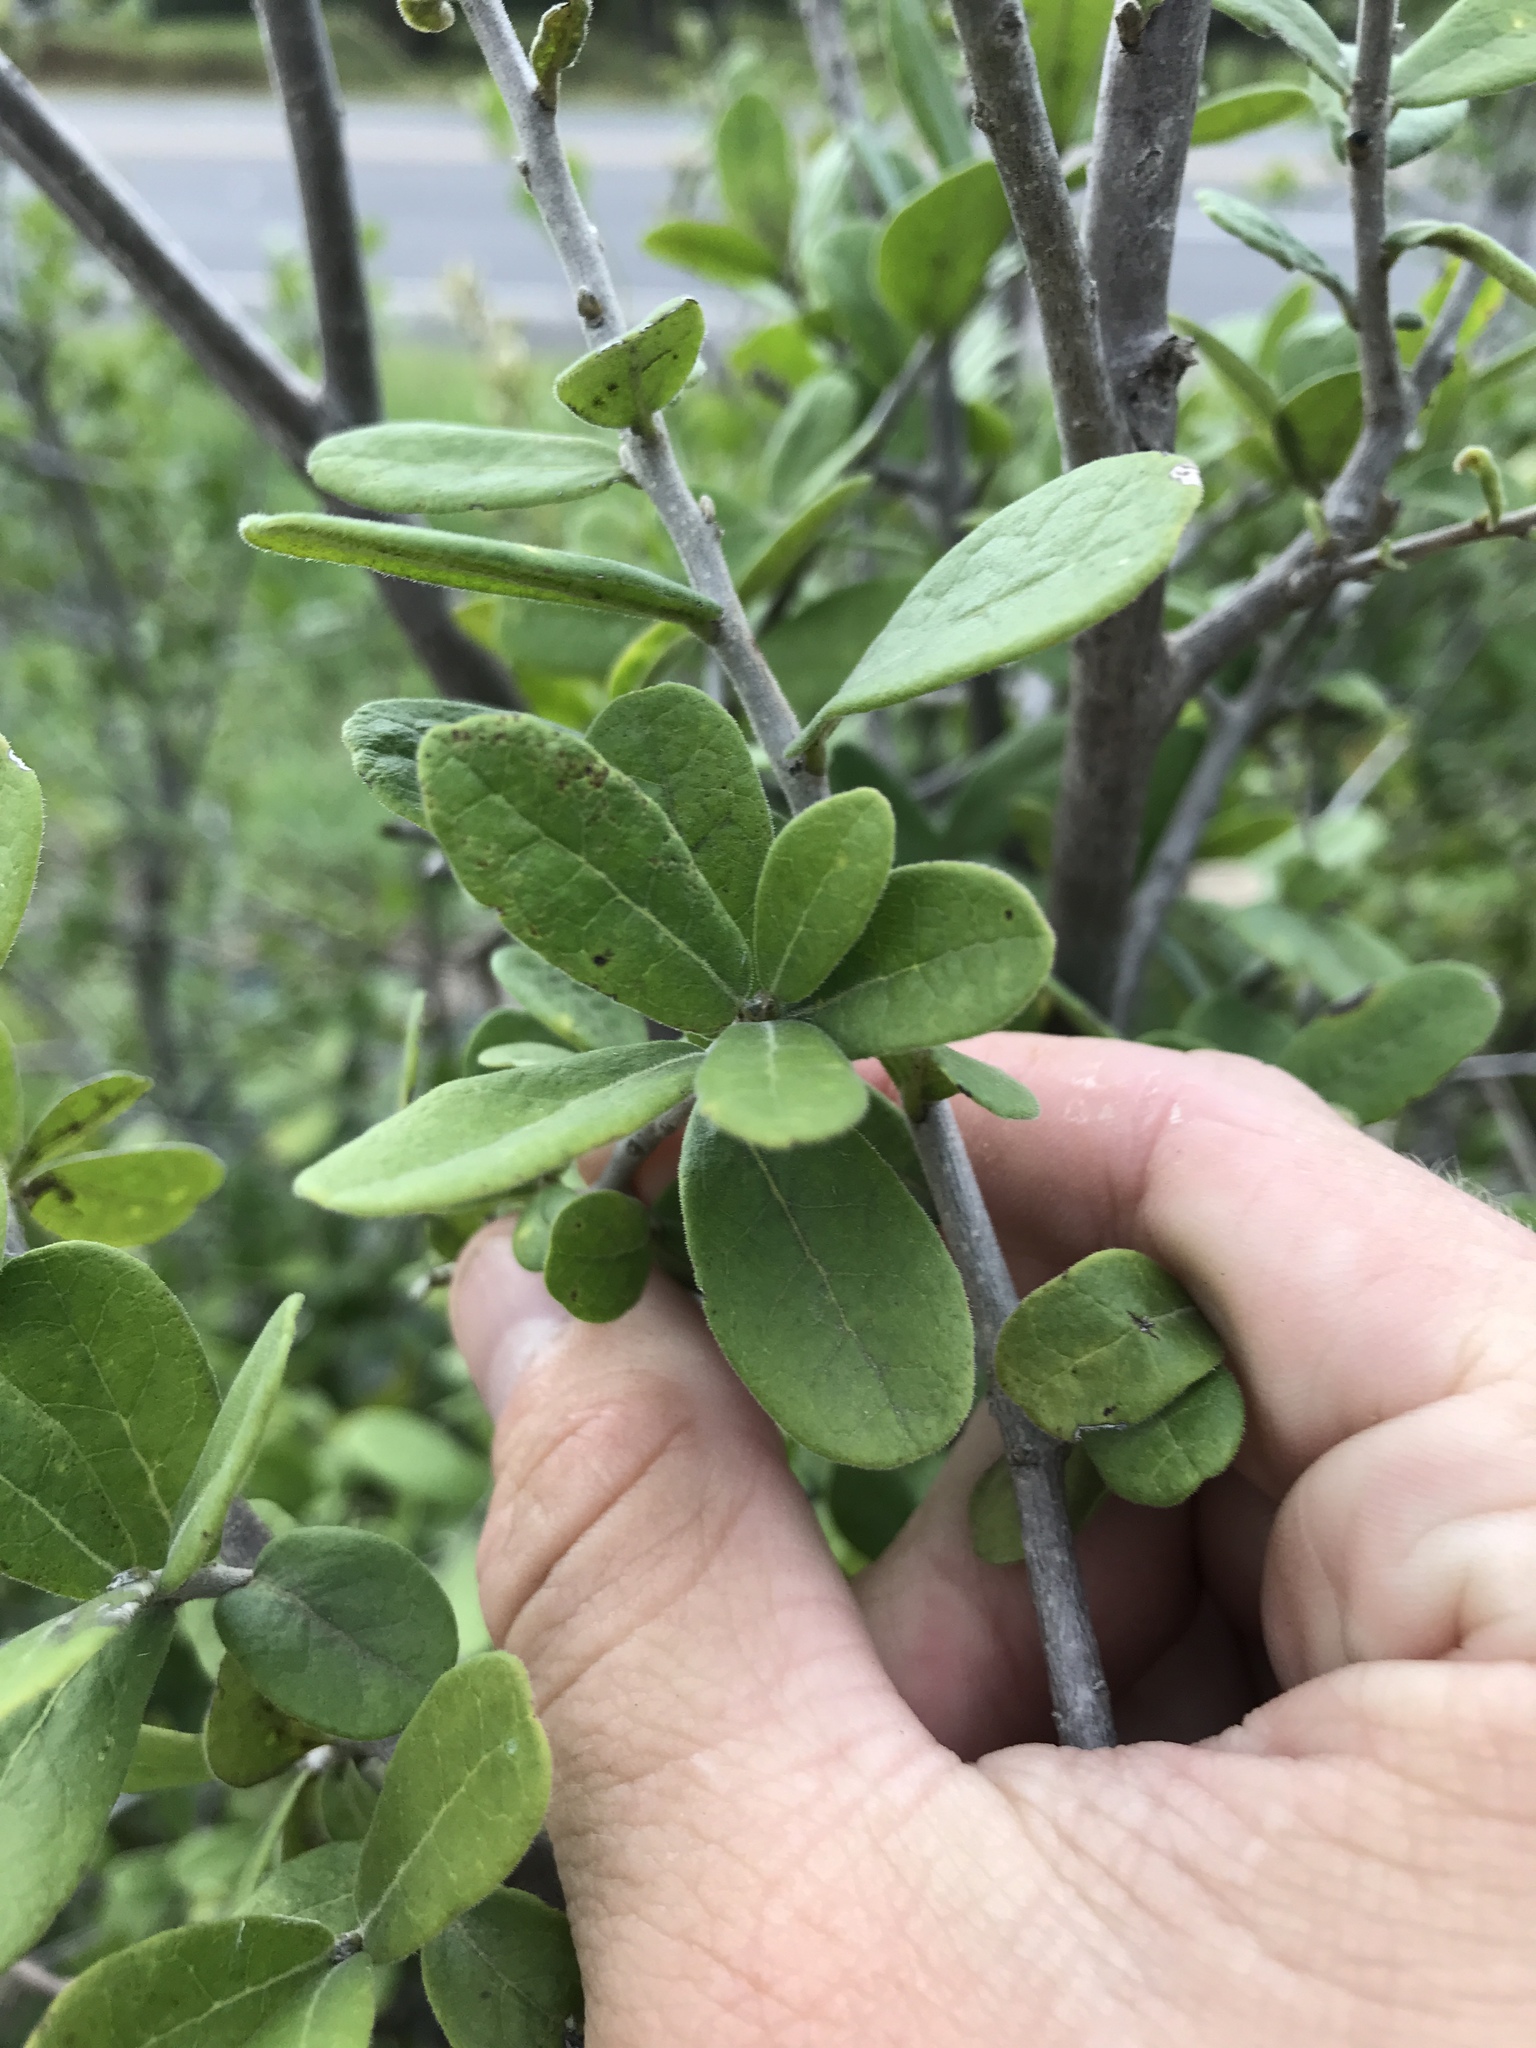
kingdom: Plantae
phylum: Tracheophyta
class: Magnoliopsida
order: Ericales
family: Ebenaceae
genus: Diospyros
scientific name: Diospyros texana
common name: Texas persimmon
